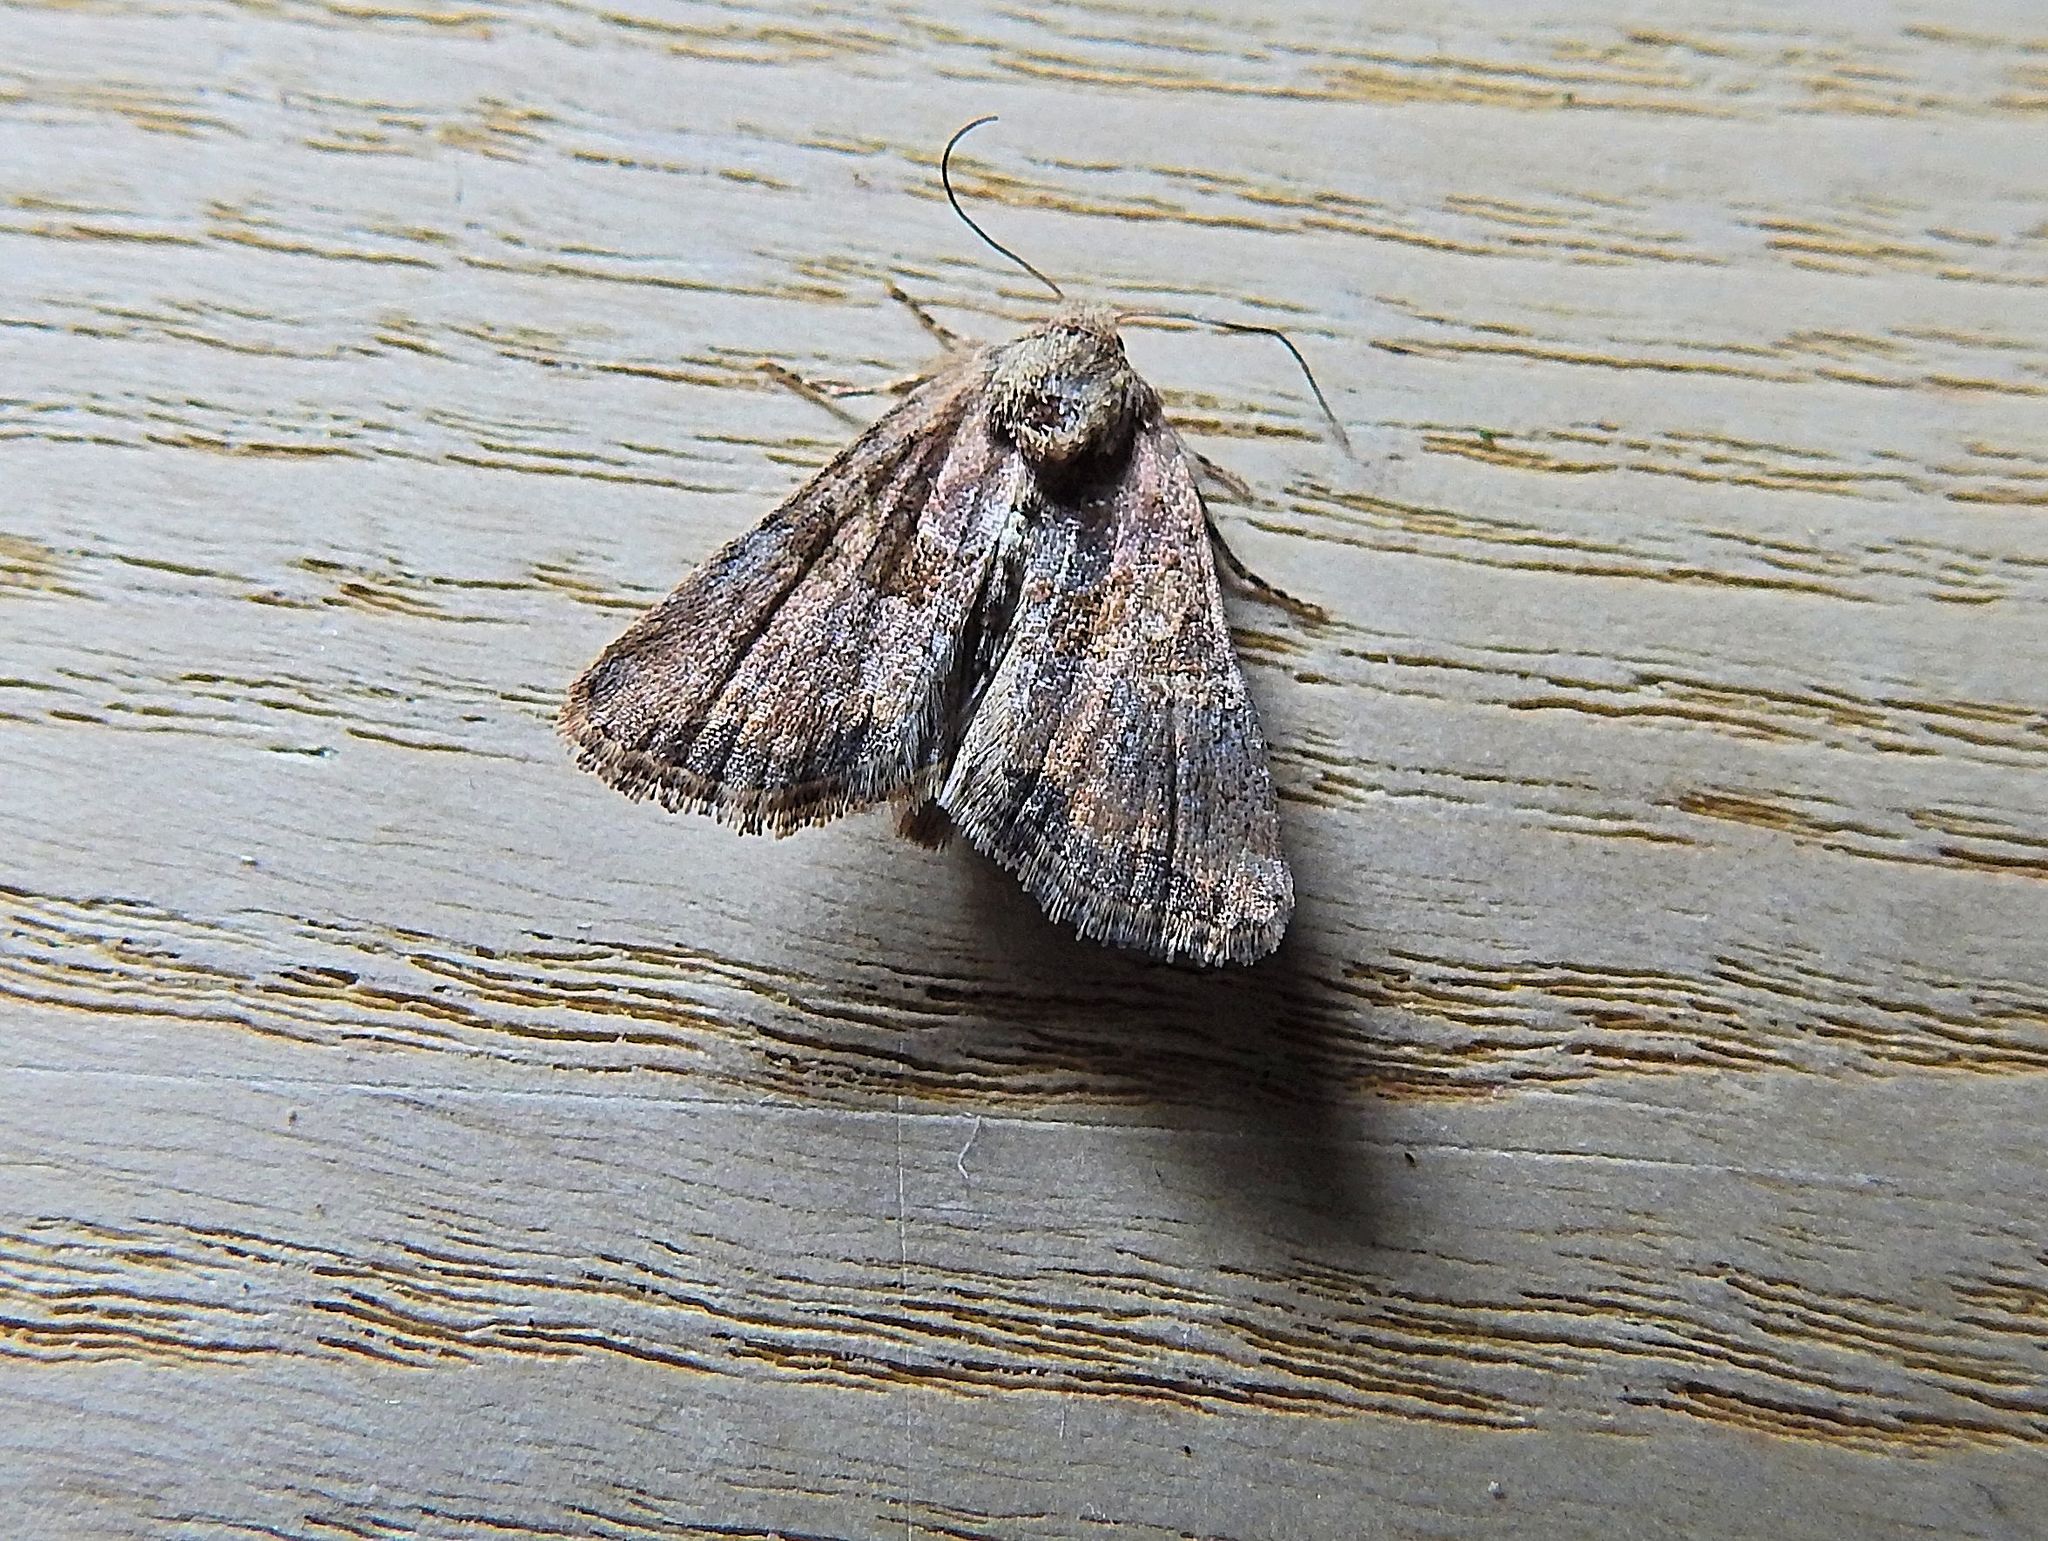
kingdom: Animalia
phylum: Arthropoda
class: Insecta
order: Lepidoptera
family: Noctuidae
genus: Mesoligia
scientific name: Mesoligia furuncula
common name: Cloaked minor
